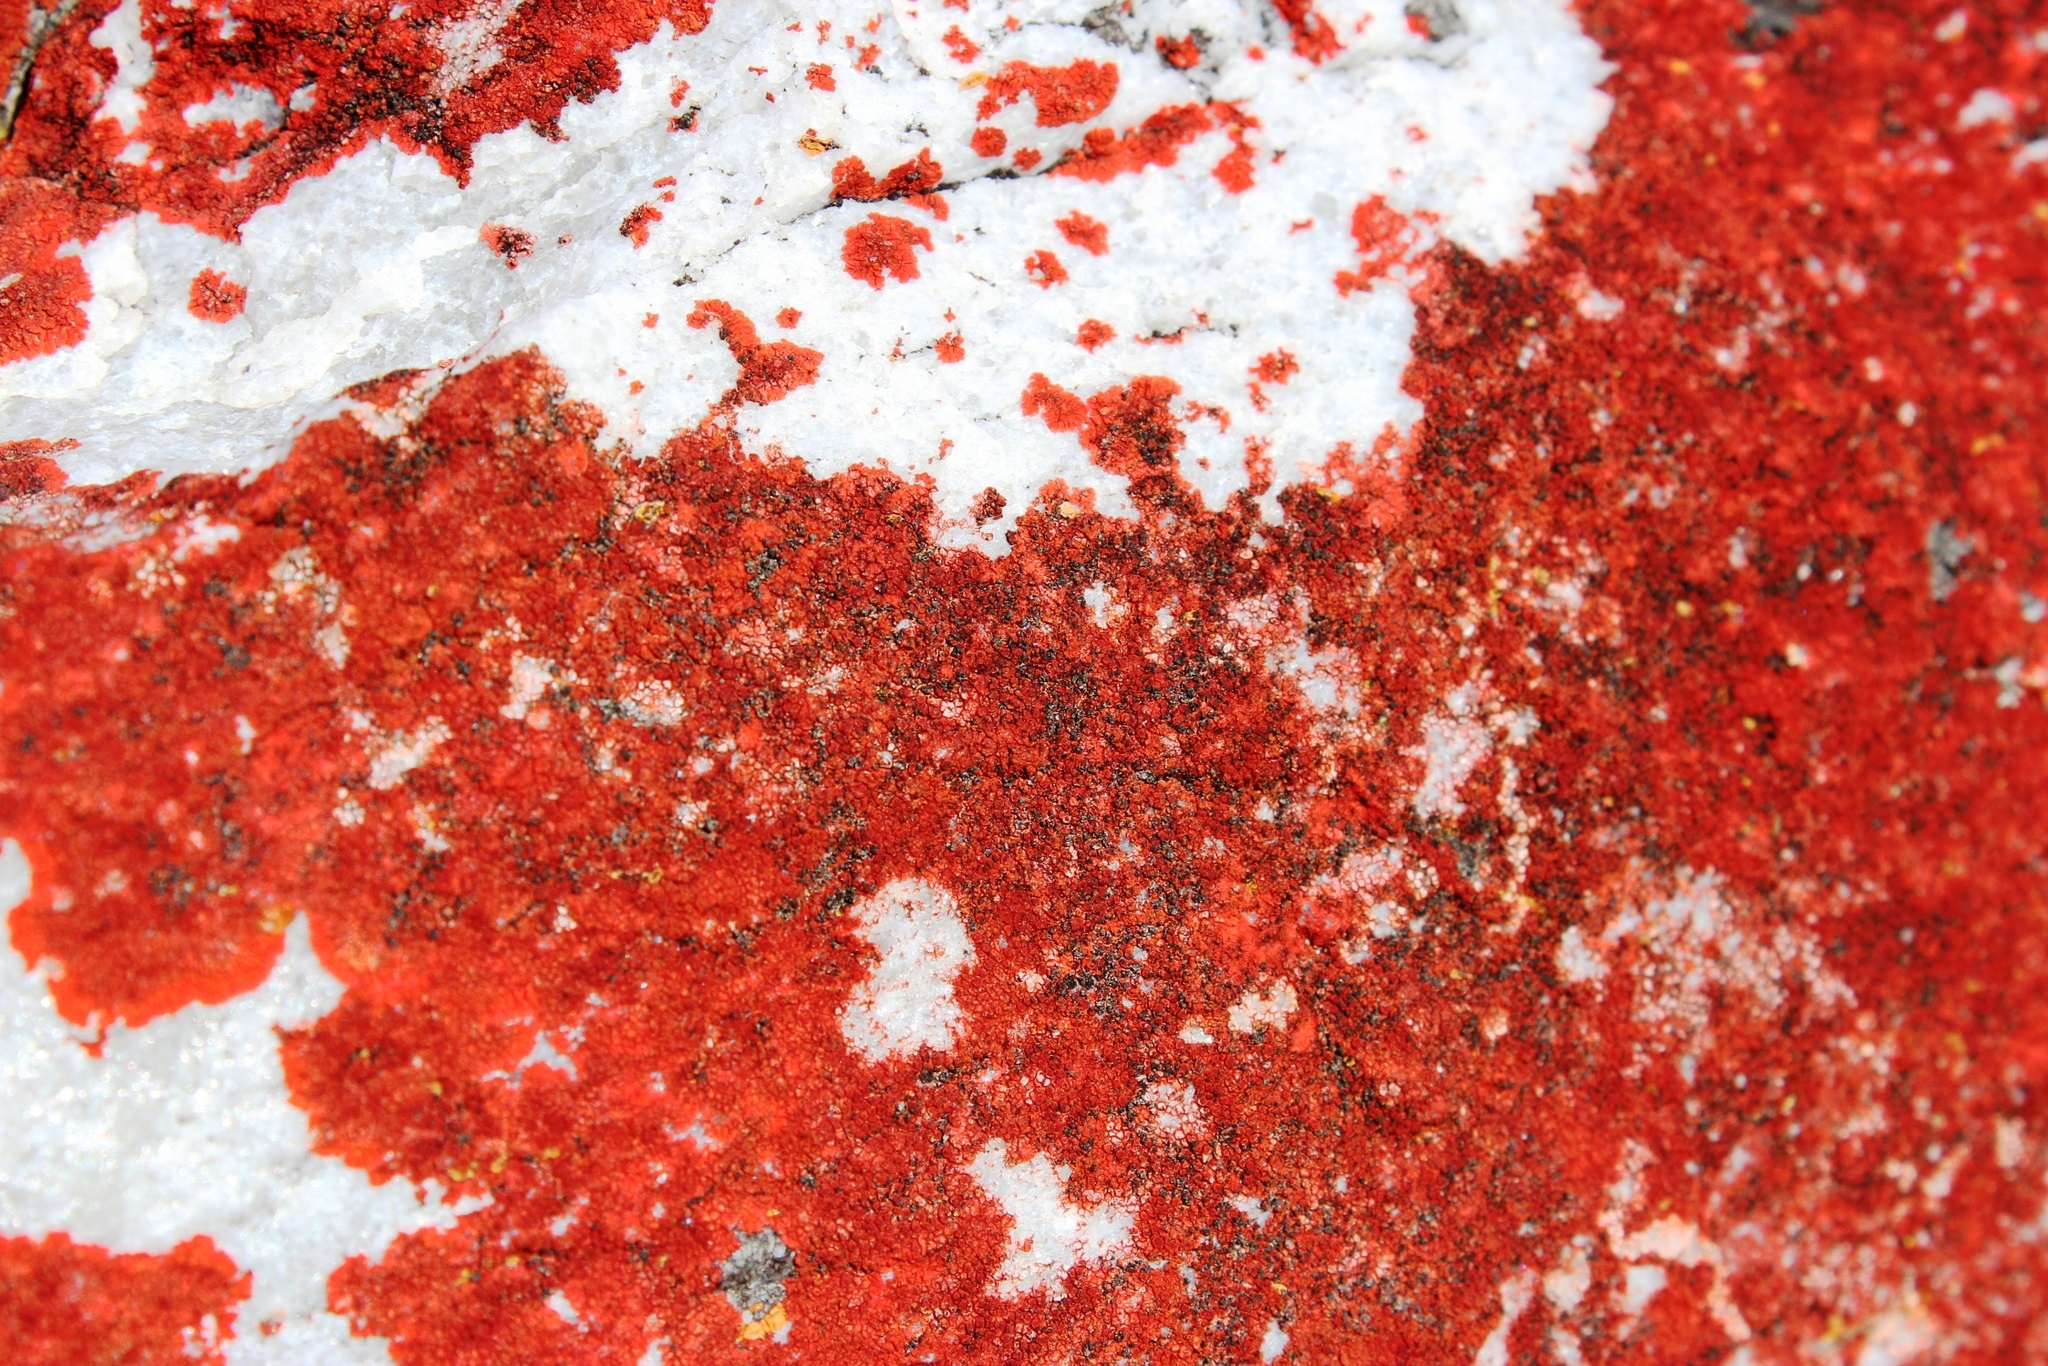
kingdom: Fungi
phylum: Ascomycota
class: Lecanoromycetes
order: Teloschistales
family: Teloschistaceae
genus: Caloplaca
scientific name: Caloplaca haematodes
